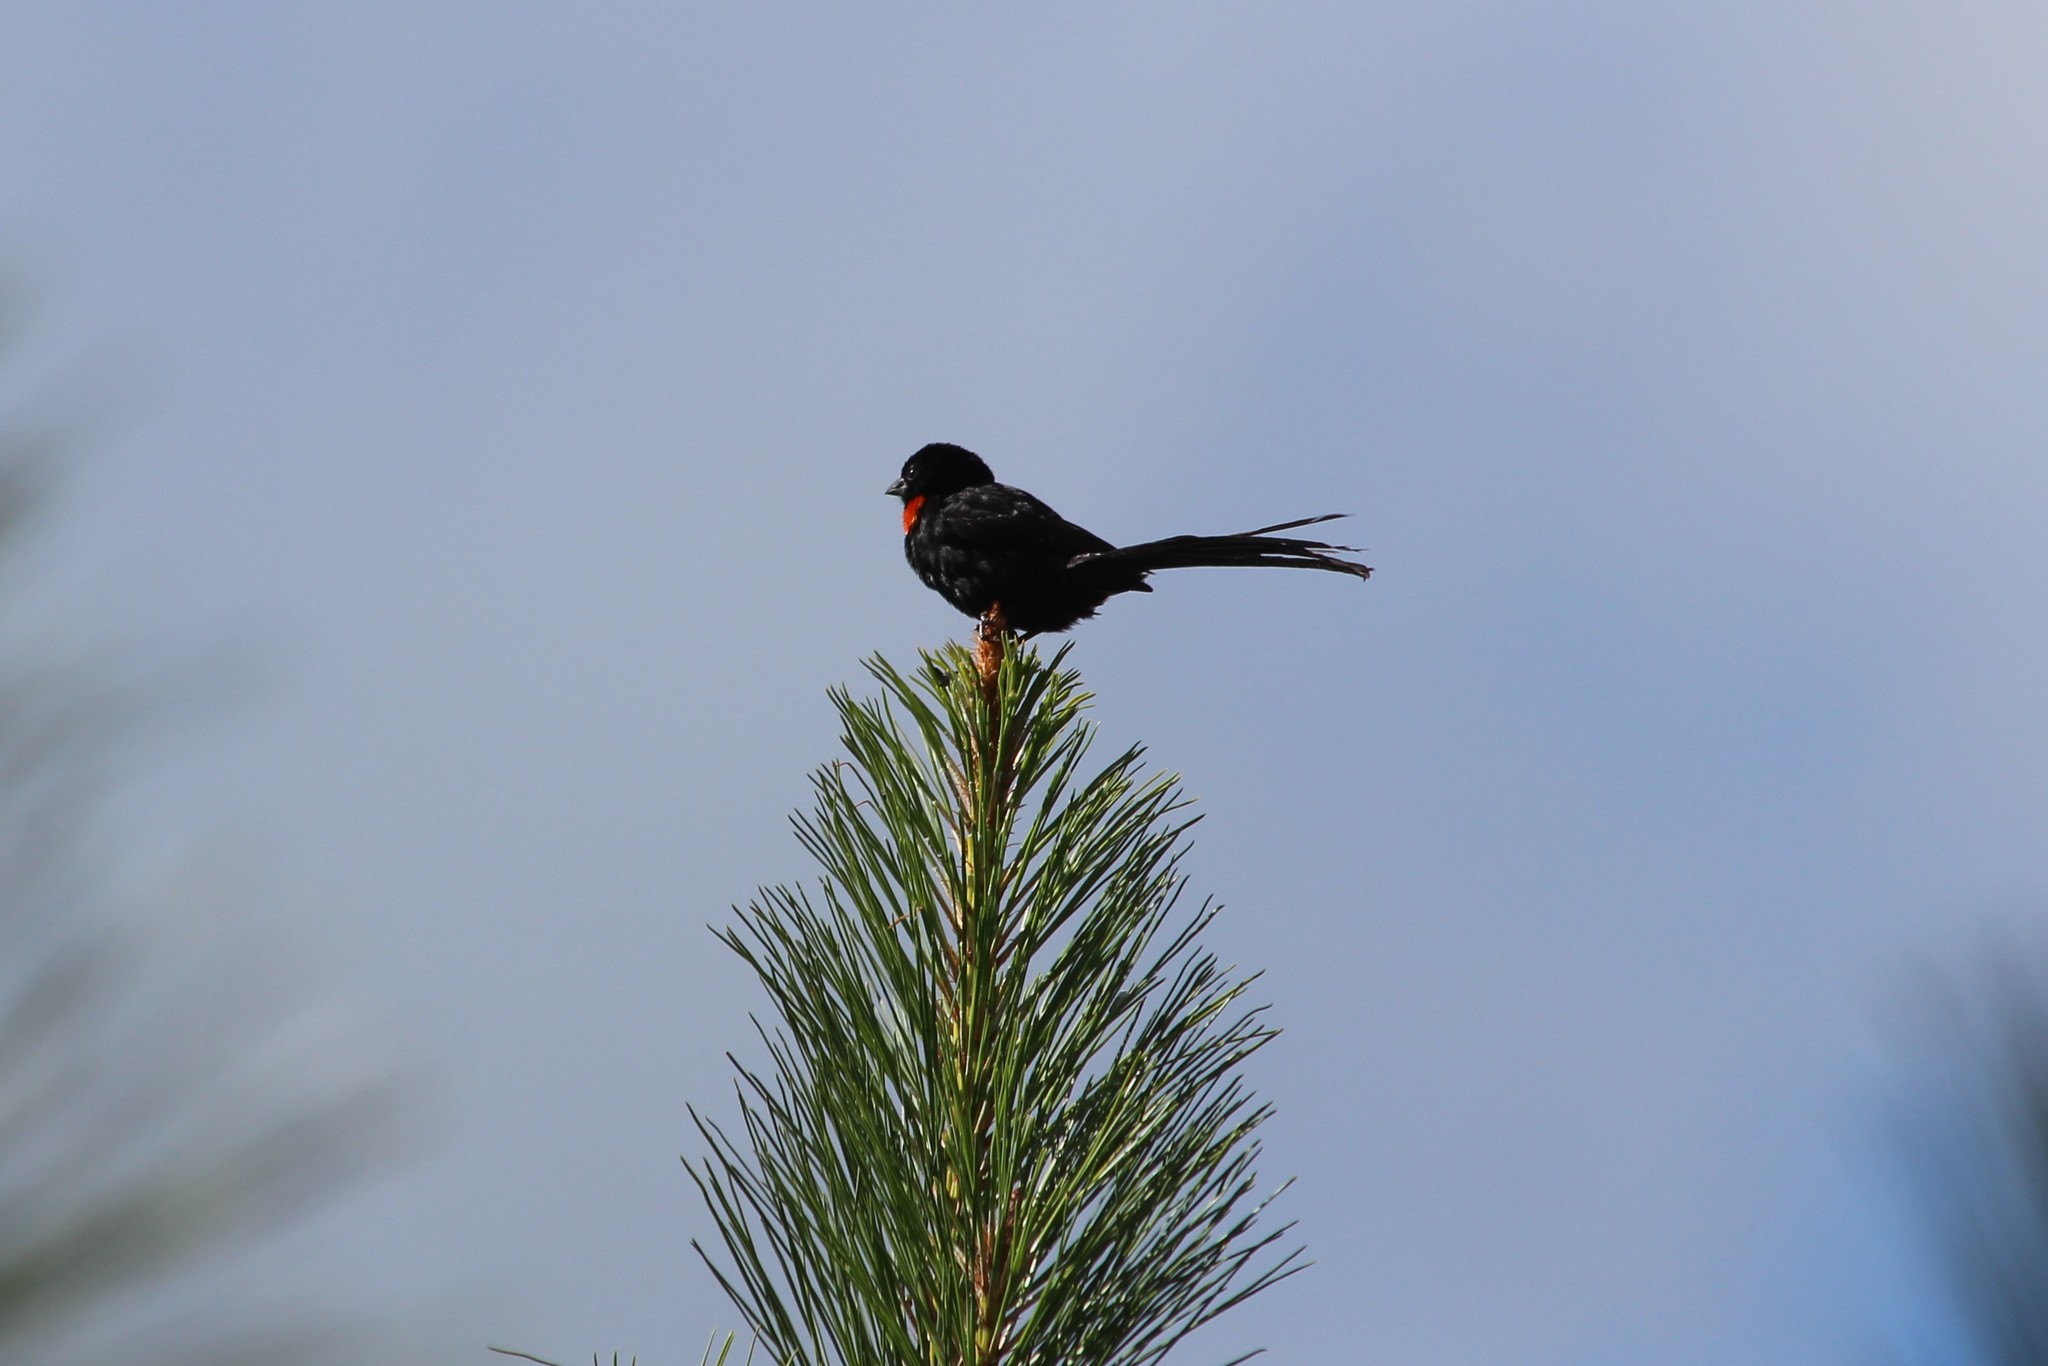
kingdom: Animalia
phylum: Chordata
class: Aves
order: Passeriformes
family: Ploceidae
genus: Euplectes
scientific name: Euplectes ardens
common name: Red-collared widowbird
